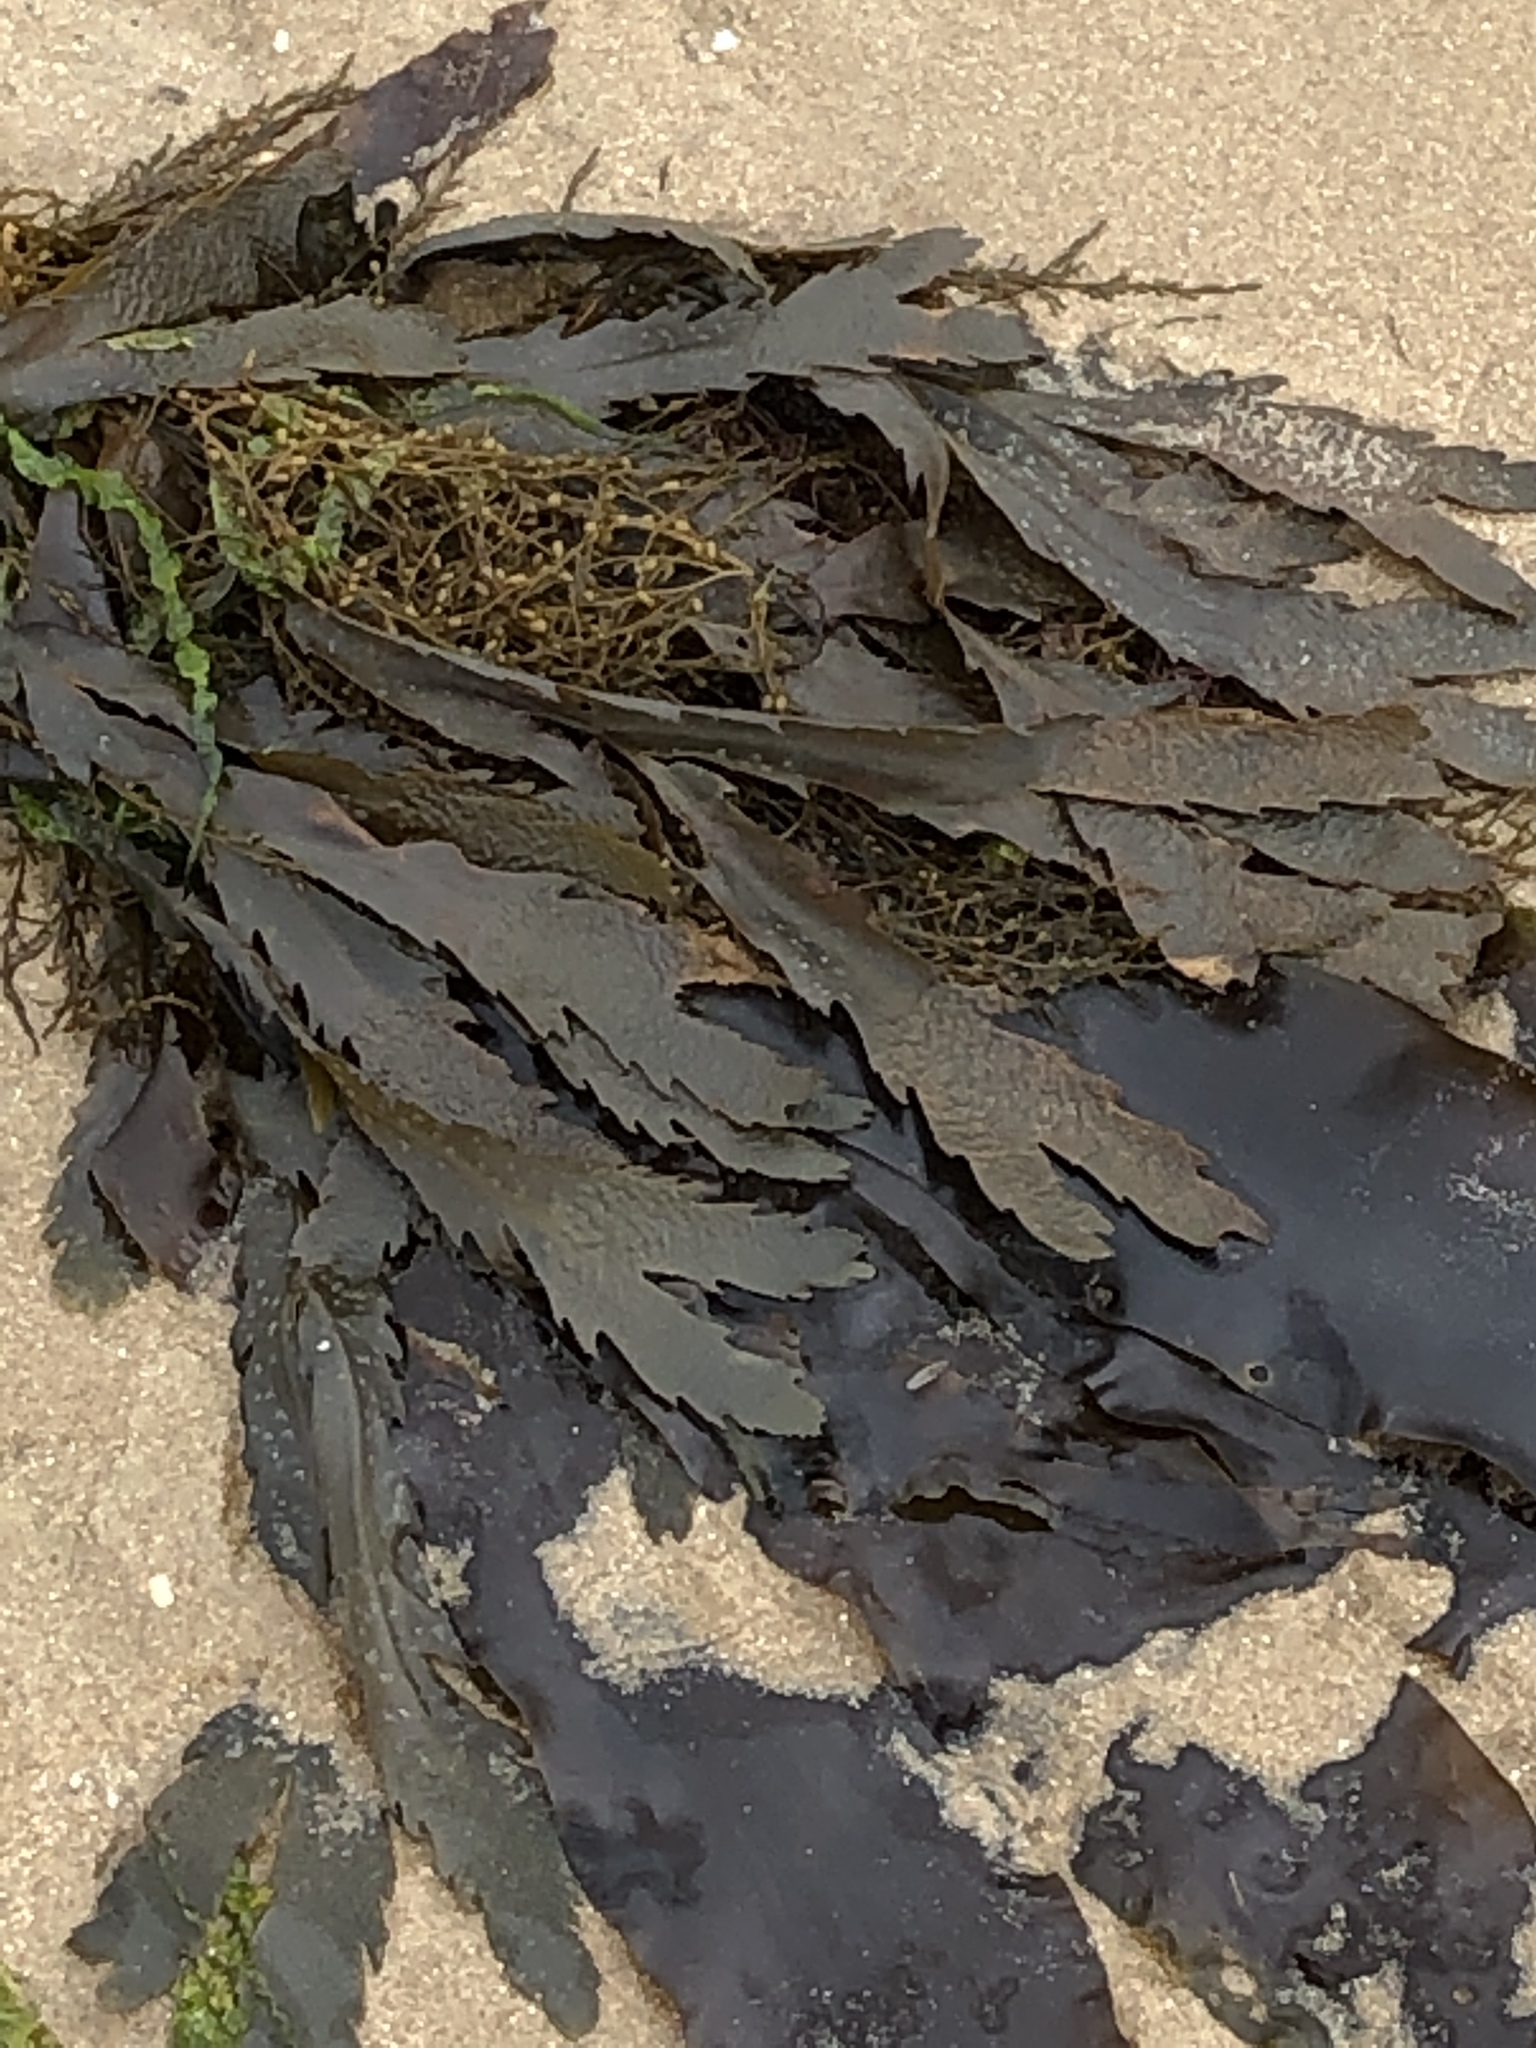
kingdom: Chromista
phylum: Ochrophyta
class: Phaeophyceae
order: Fucales
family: Fucaceae
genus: Fucus
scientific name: Fucus serratus
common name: Toothed wrack
